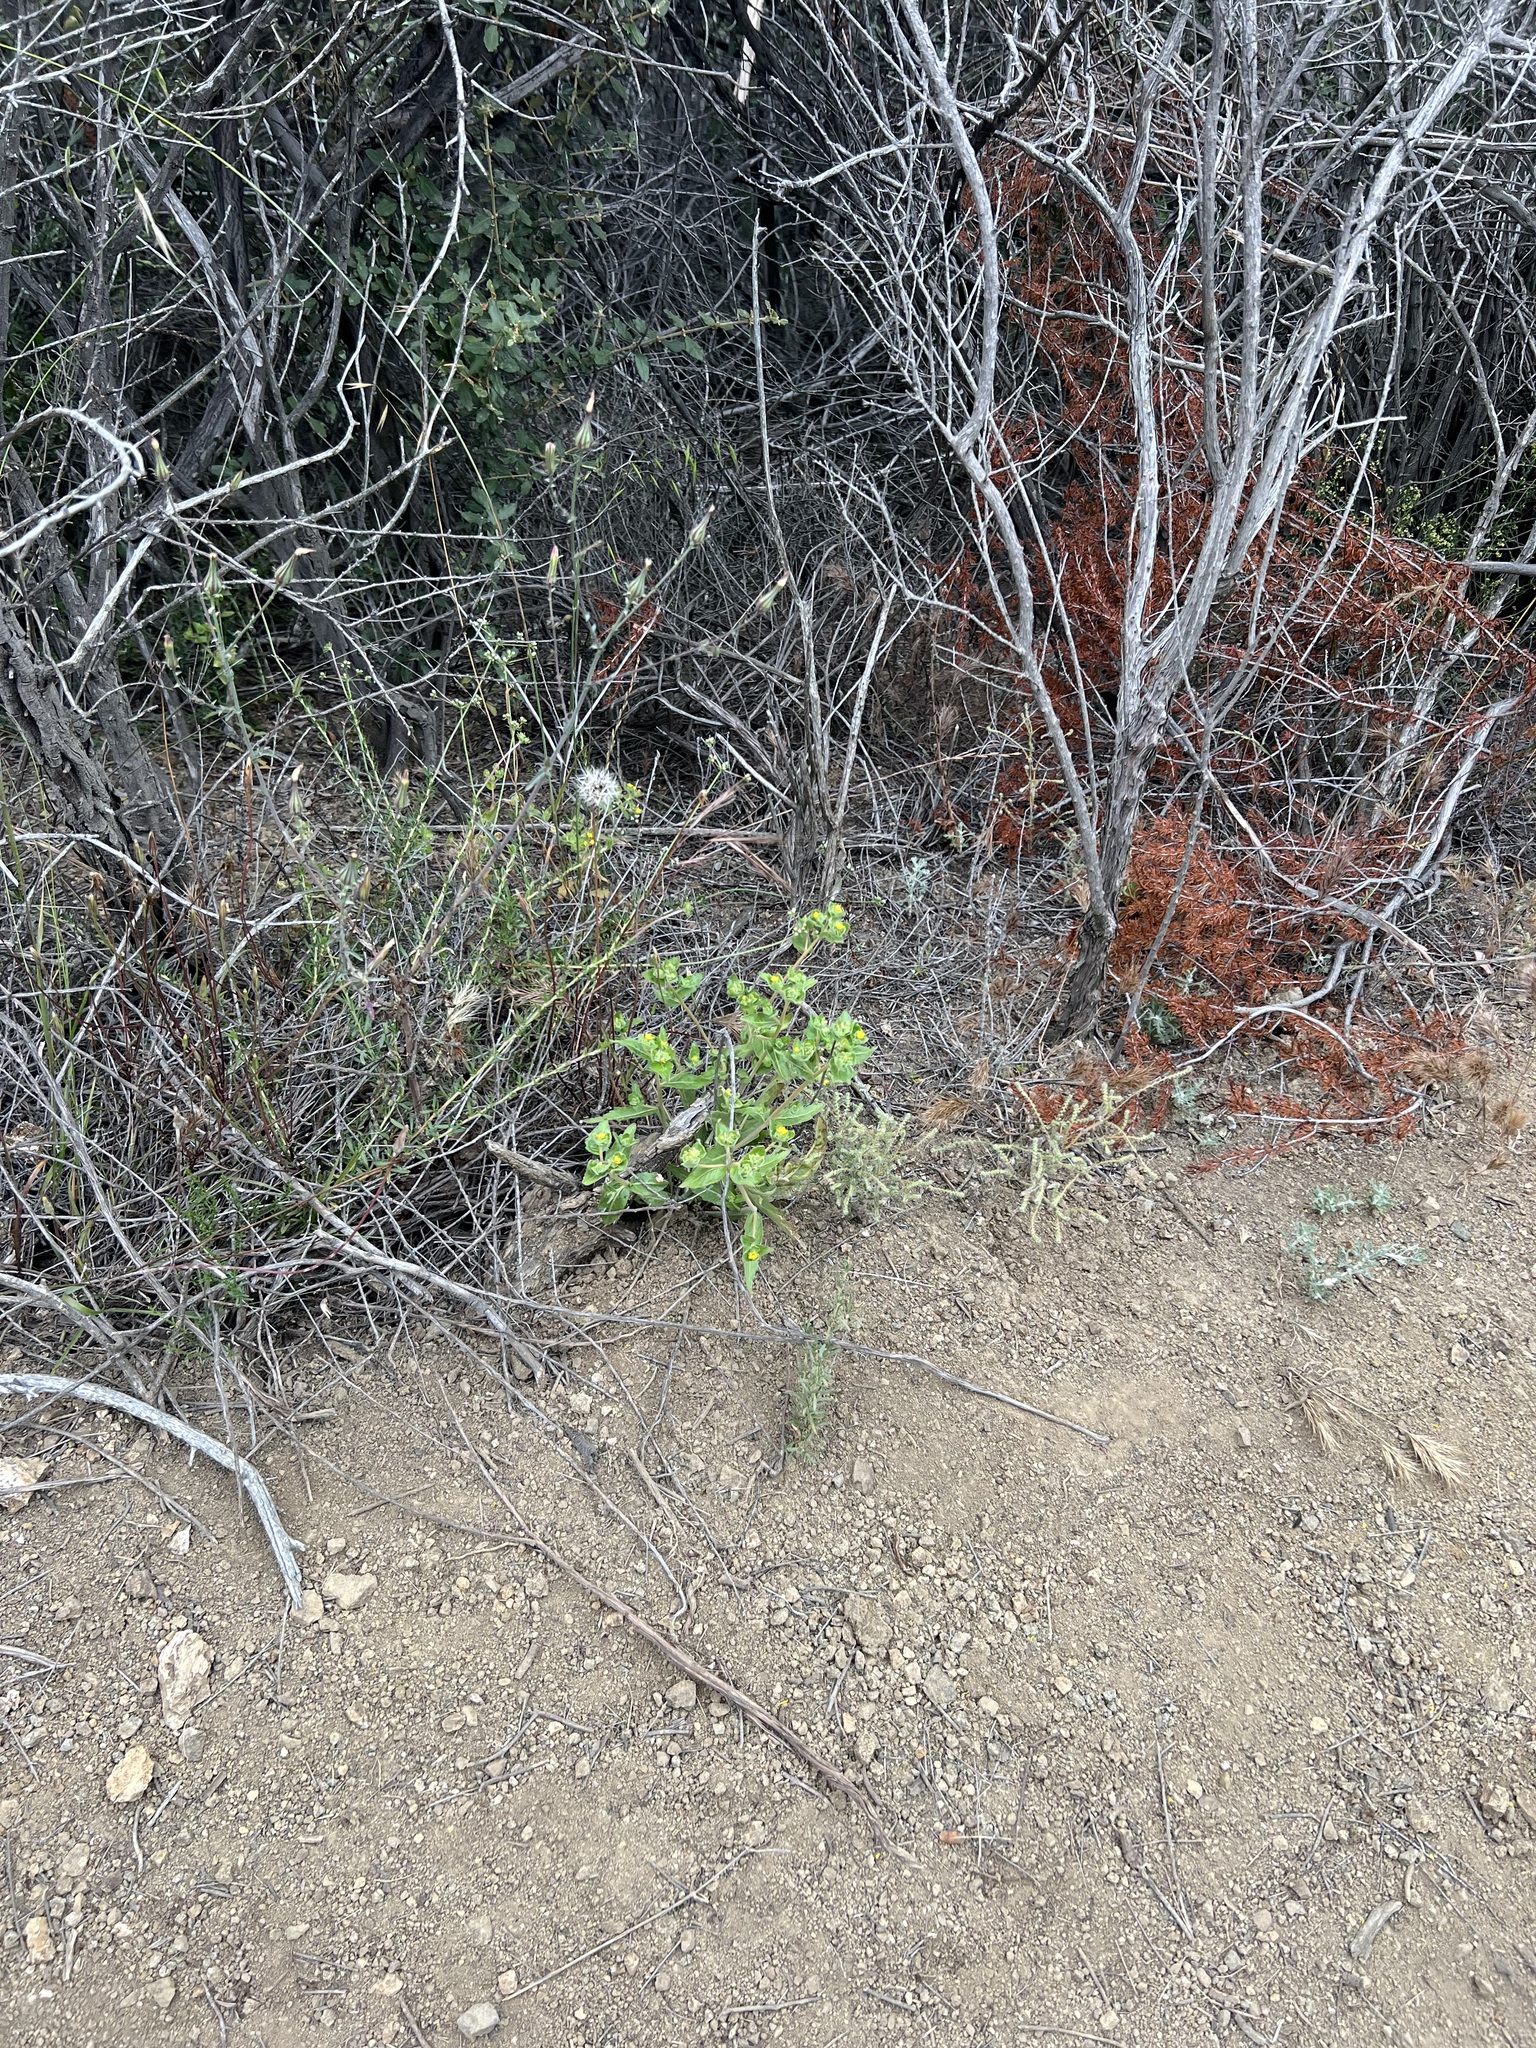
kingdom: Plantae
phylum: Tracheophyta
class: Magnoliopsida
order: Cornales
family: Loasaceae
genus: Mentzelia
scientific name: Mentzelia micrantha
